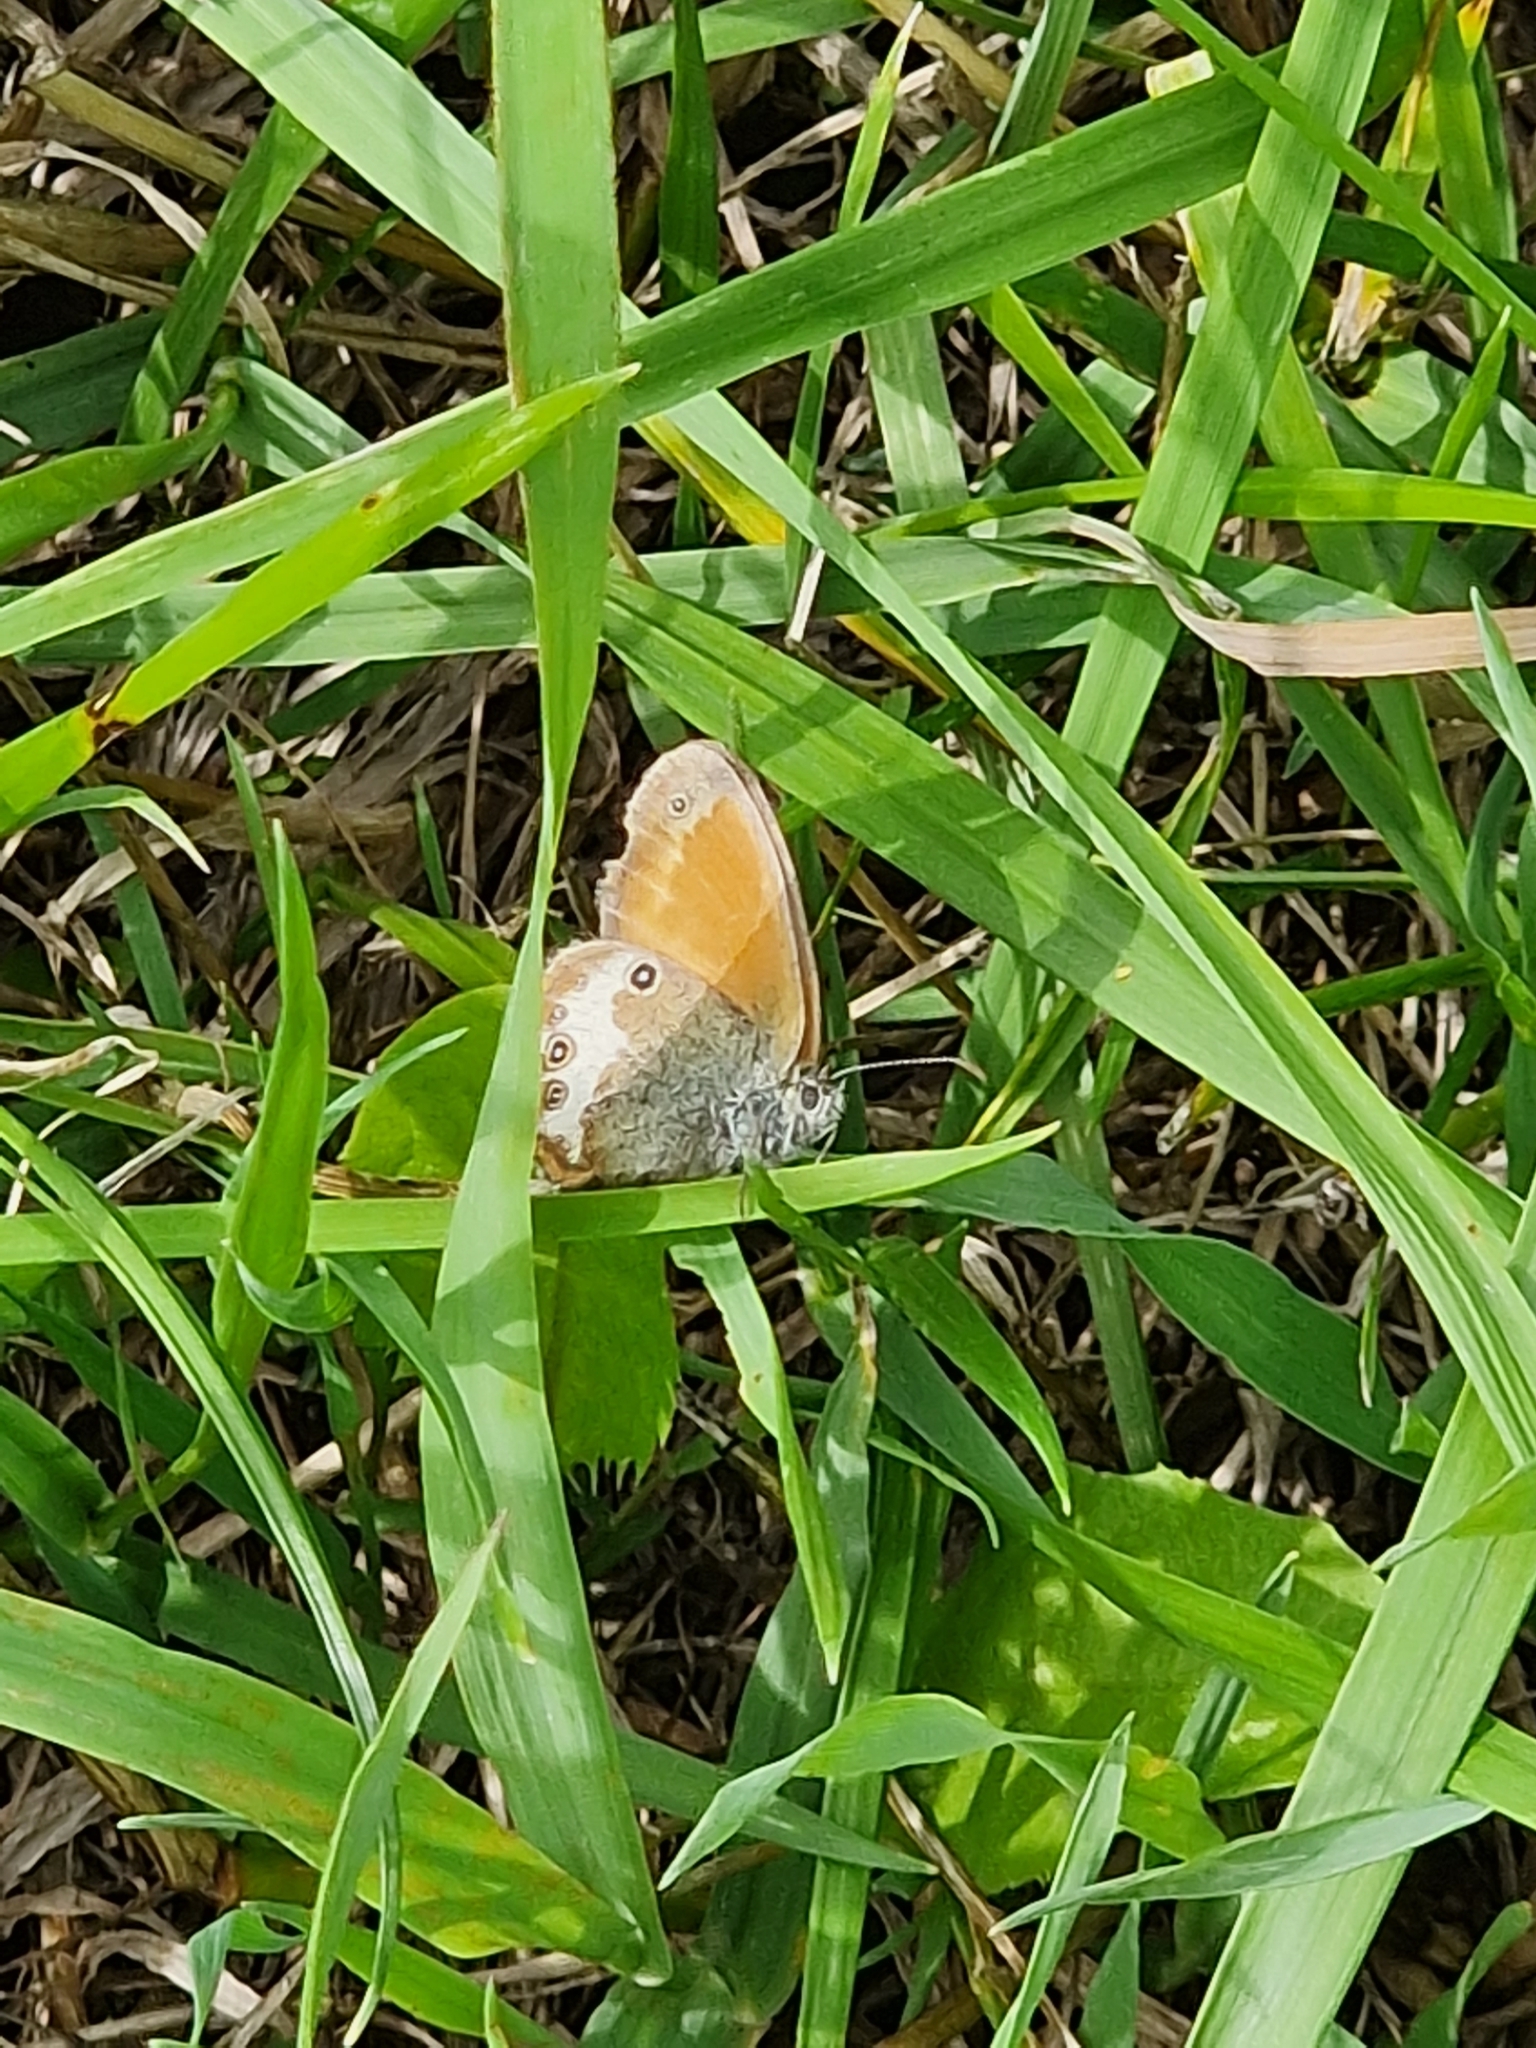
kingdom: Animalia
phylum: Arthropoda
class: Insecta
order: Lepidoptera
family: Nymphalidae
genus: Coenonympha
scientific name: Coenonympha arcania
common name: Pearly heath
